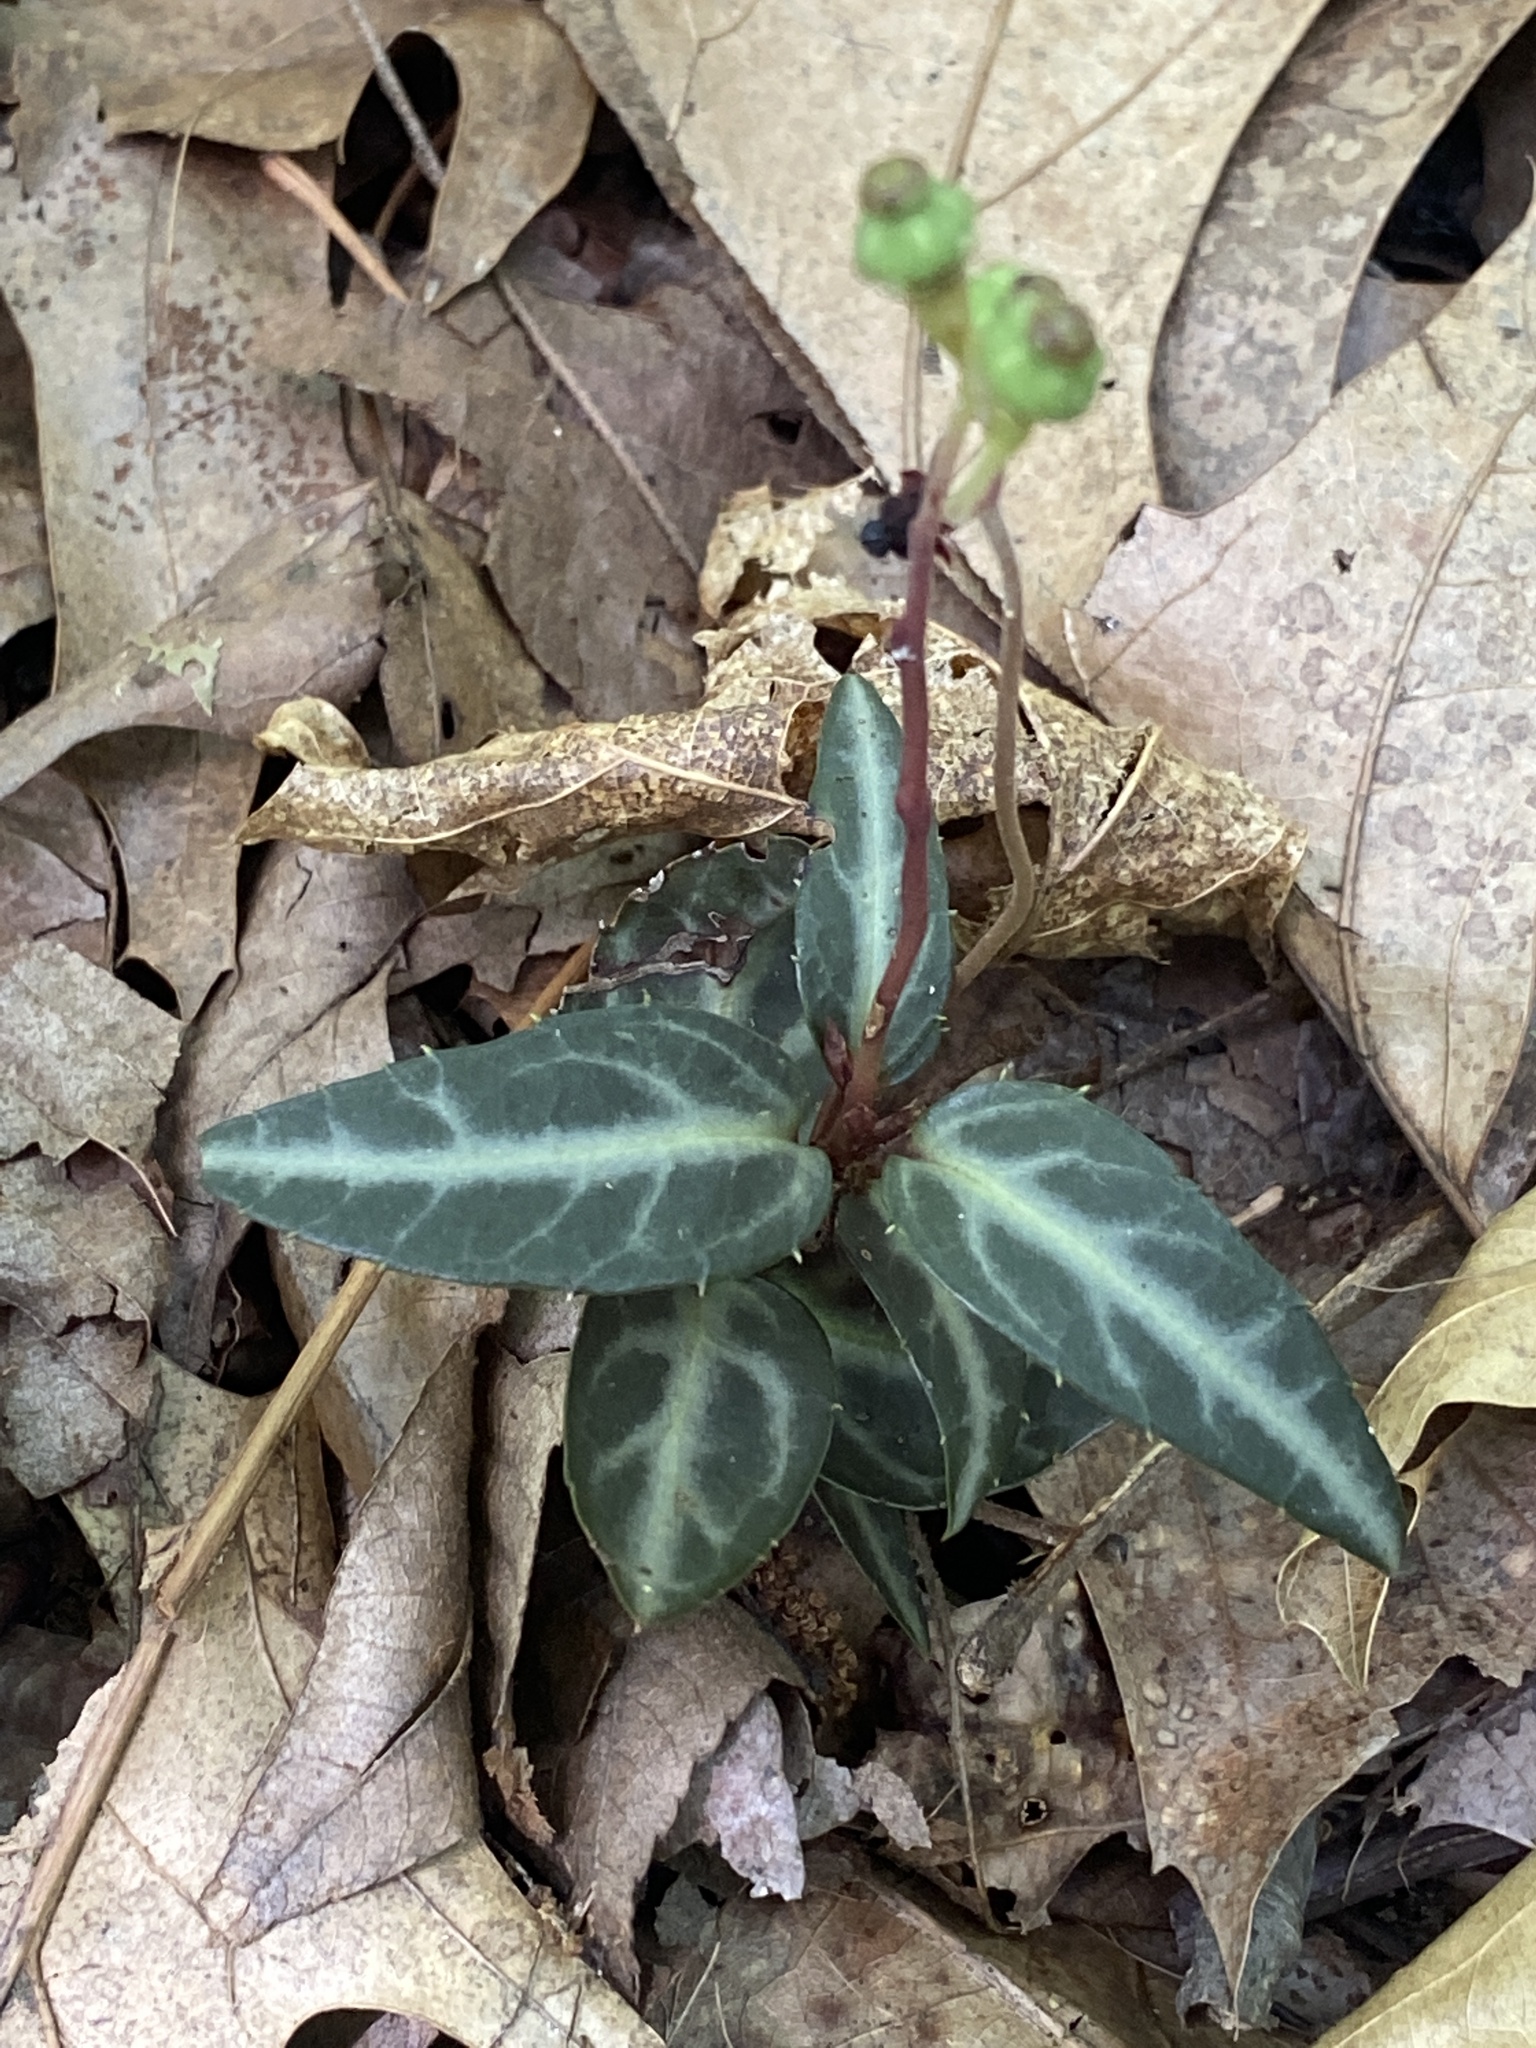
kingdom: Plantae
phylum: Tracheophyta
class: Magnoliopsida
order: Ericales
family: Ericaceae
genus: Chimaphila
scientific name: Chimaphila maculata
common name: Spotted pipsissewa
